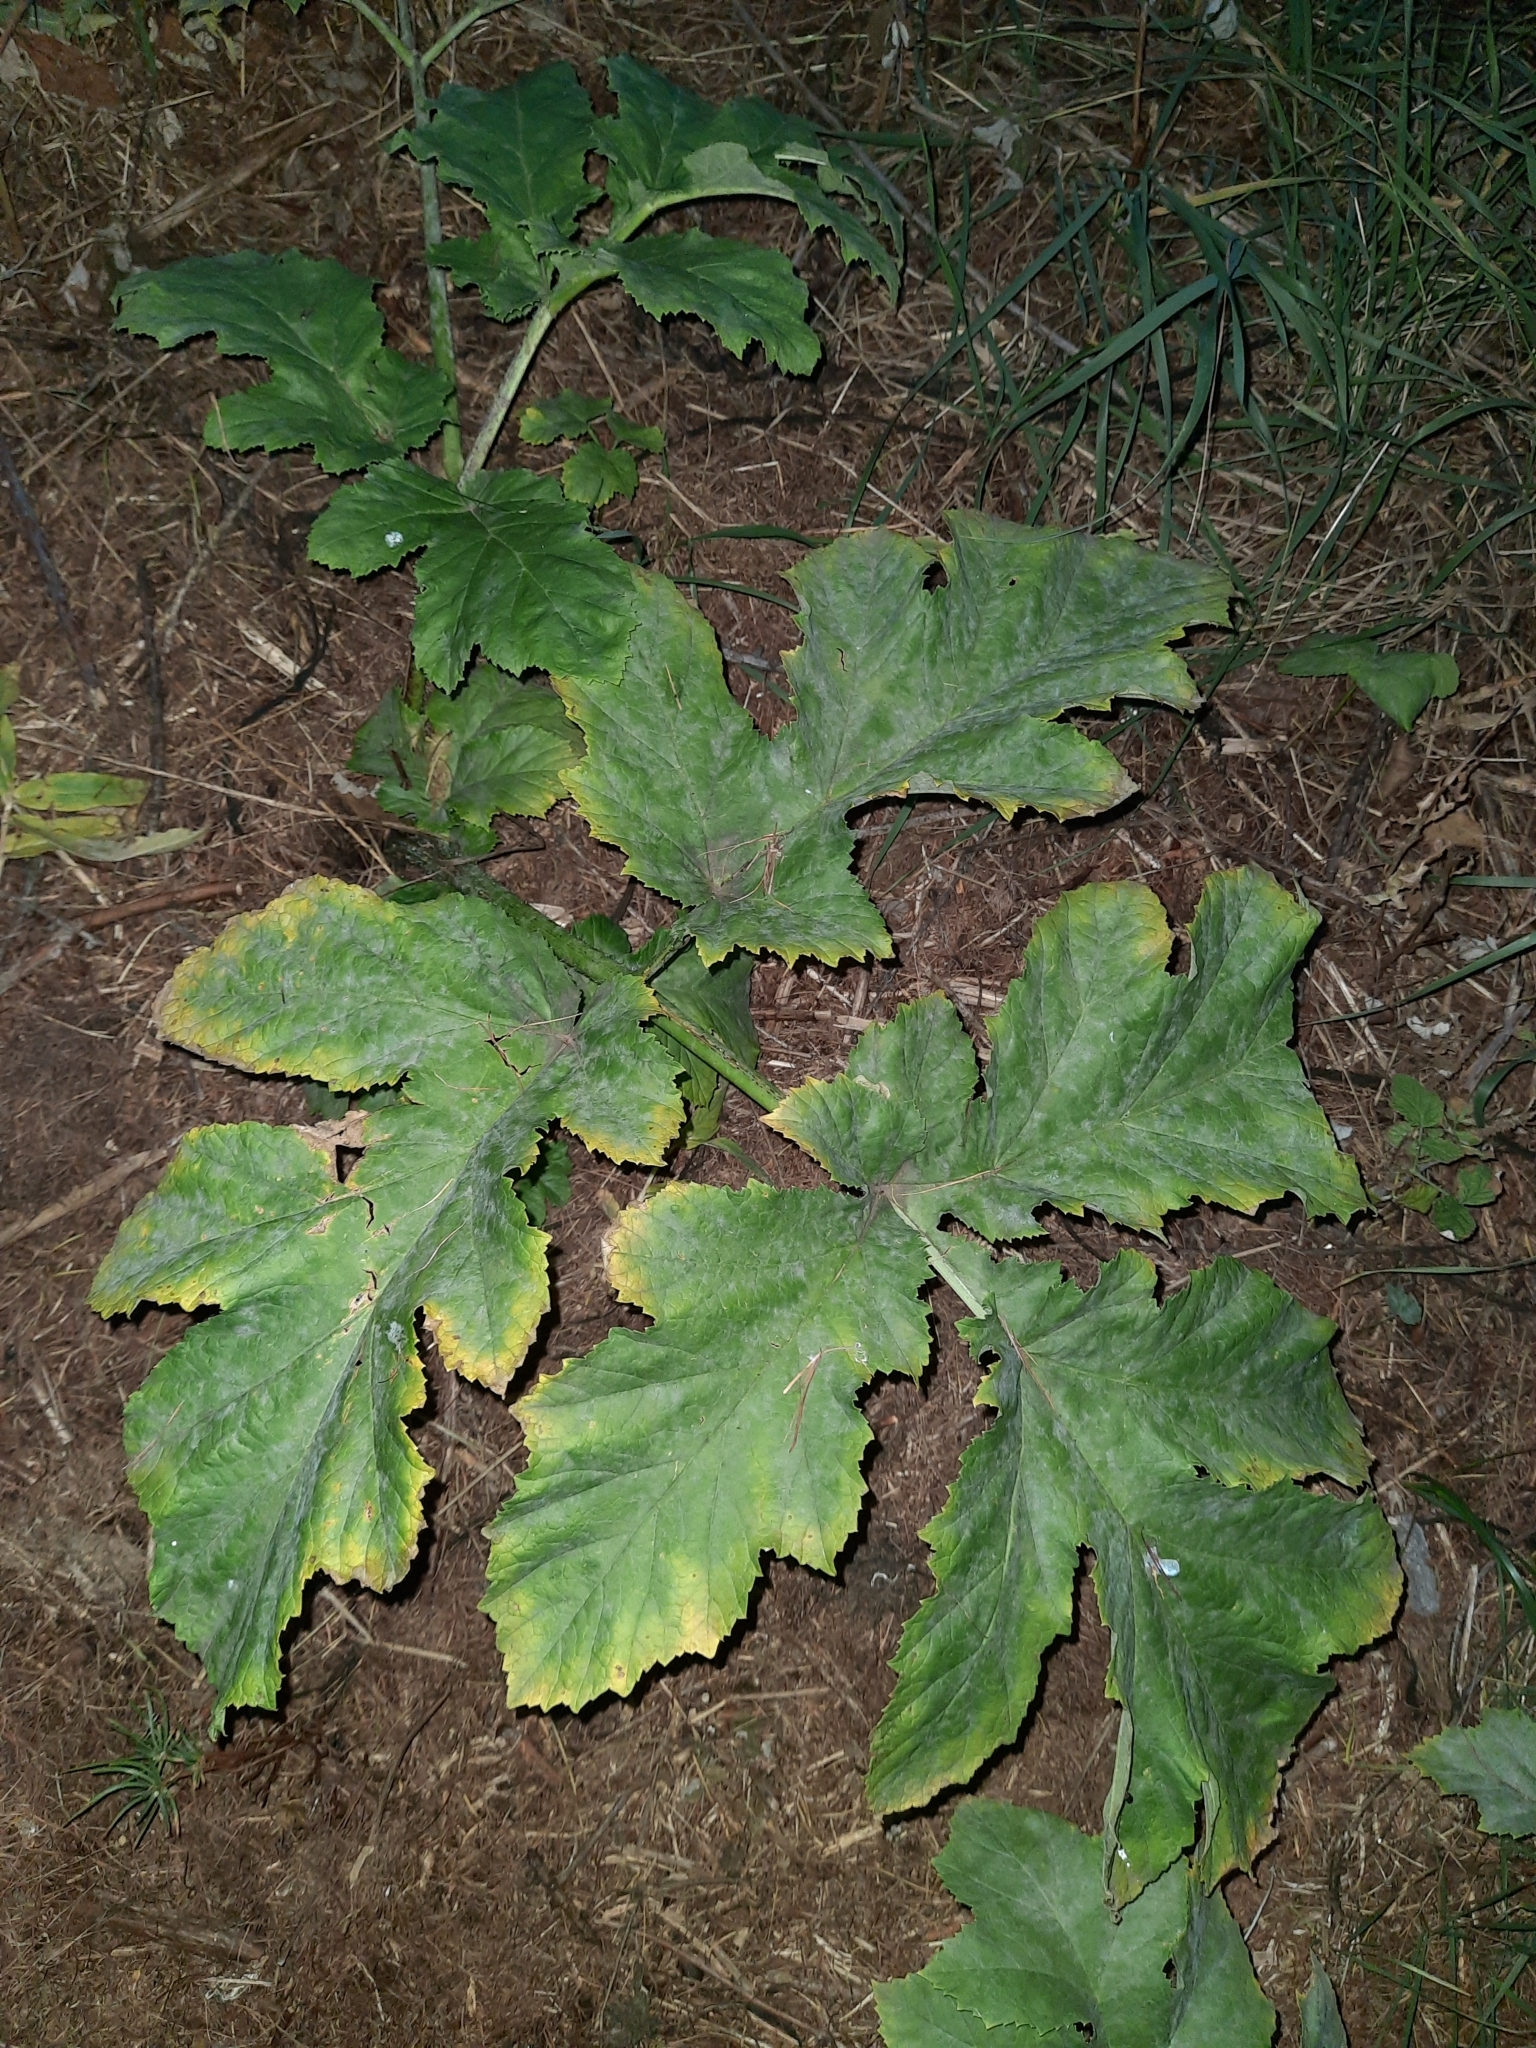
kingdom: Plantae
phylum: Tracheophyta
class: Magnoliopsida
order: Apiales
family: Apiaceae
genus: Heracleum
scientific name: Heracleum sosnowskyi
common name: Sosnowsky's hogweed
